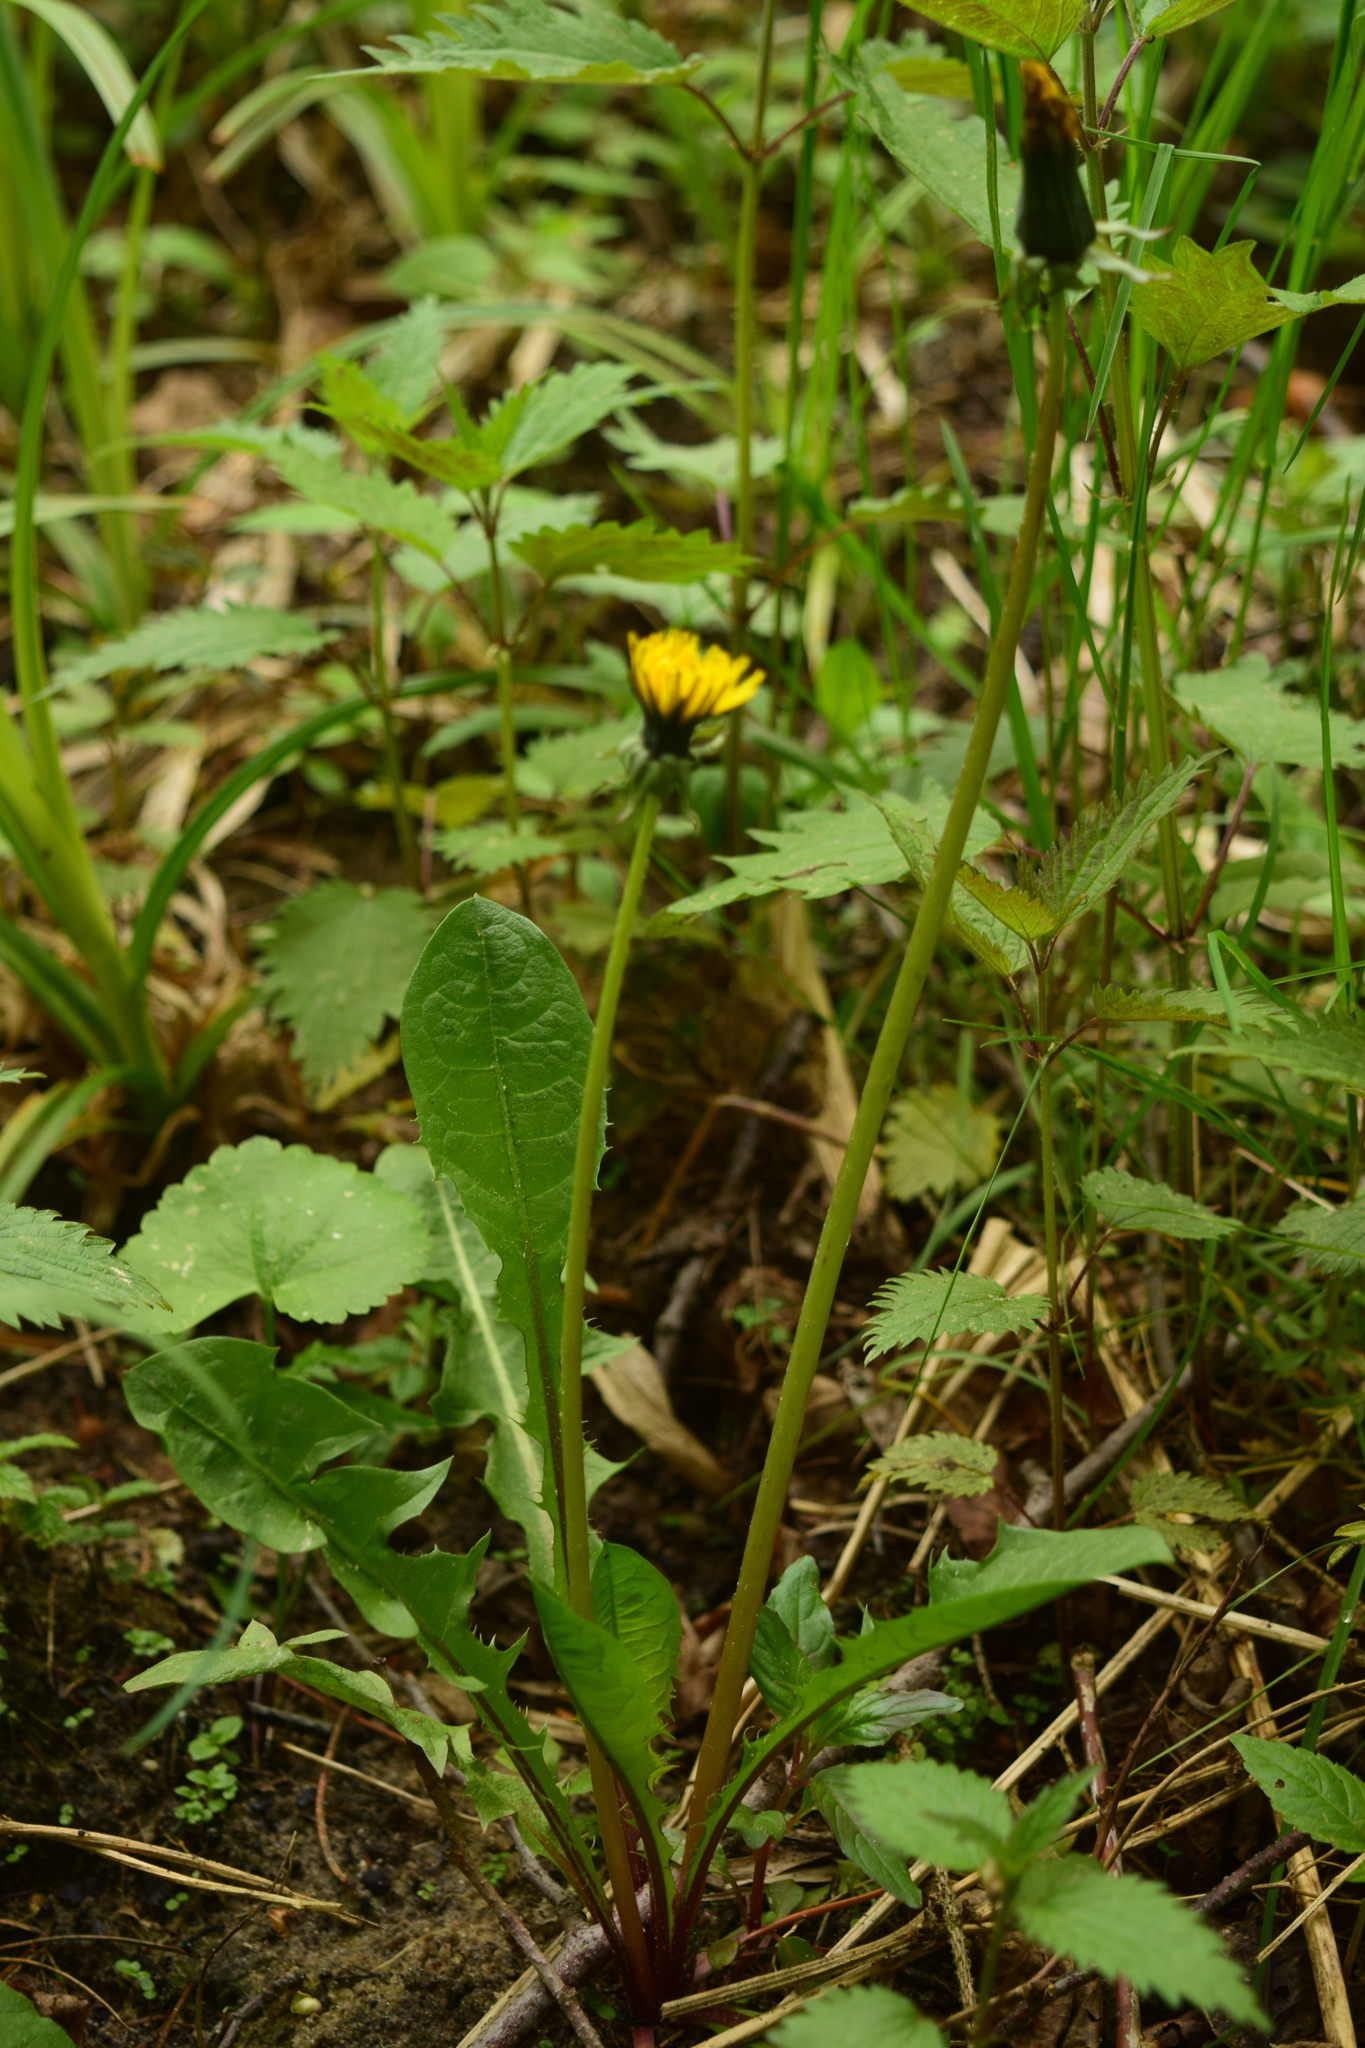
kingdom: Plantae
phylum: Tracheophyta
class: Magnoliopsida
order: Asterales
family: Asteraceae
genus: Taraxacum
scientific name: Taraxacum officinale
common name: Common dandelion
